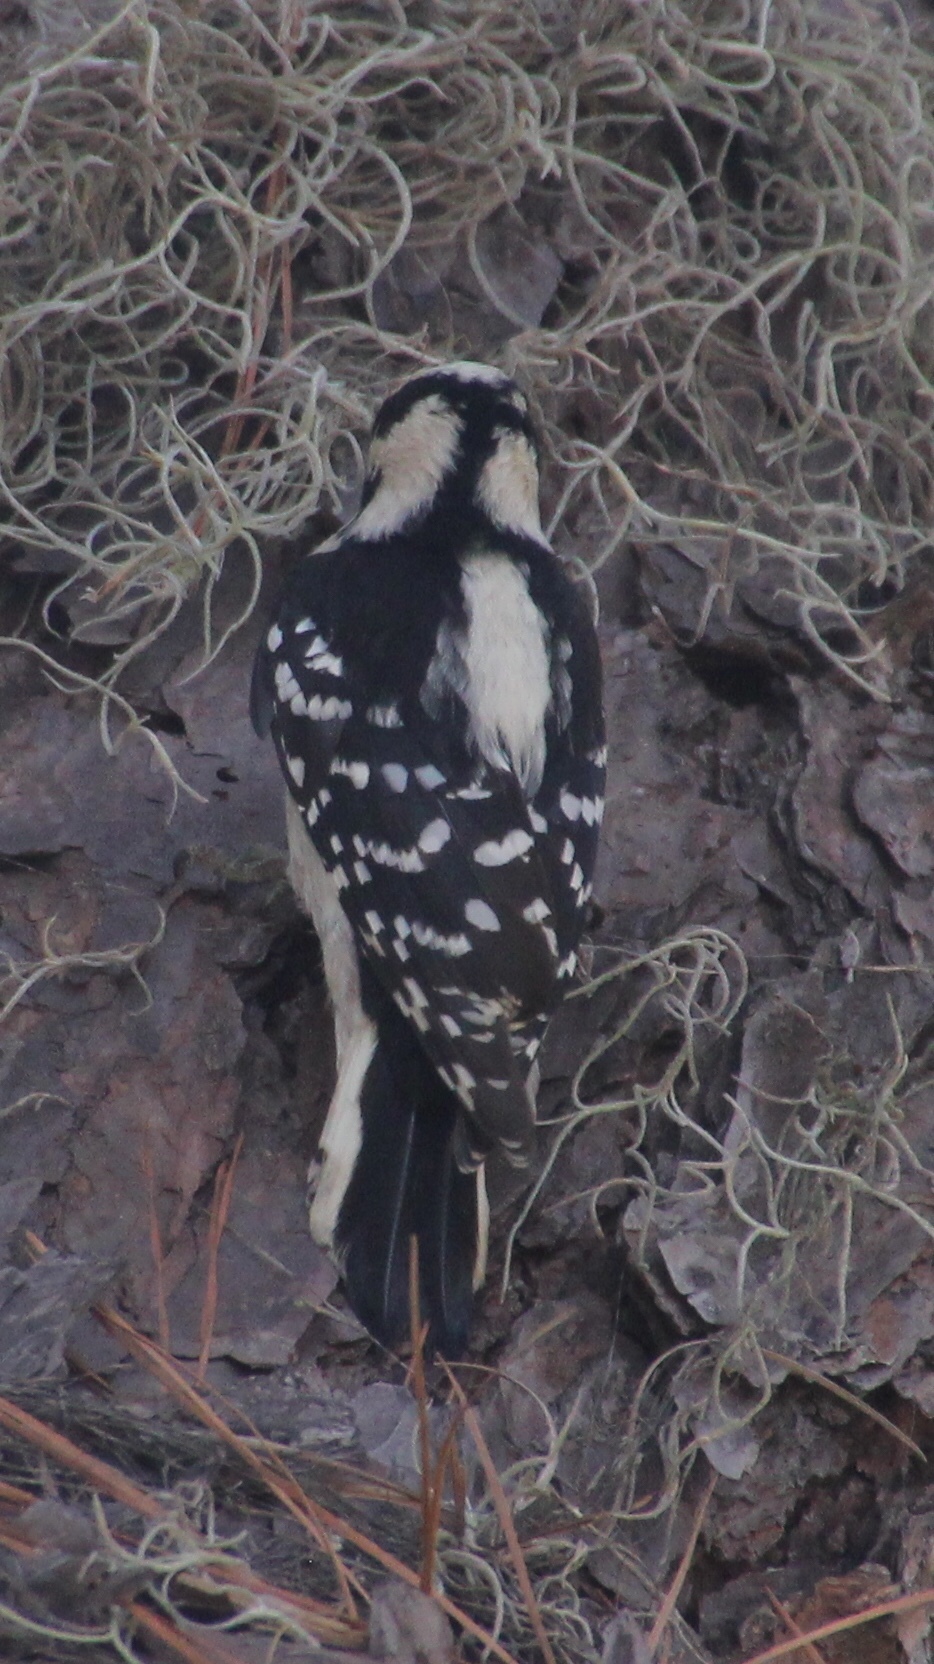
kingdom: Animalia
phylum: Chordata
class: Aves
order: Piciformes
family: Picidae
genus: Dryobates
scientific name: Dryobates pubescens
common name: Downy woodpecker
